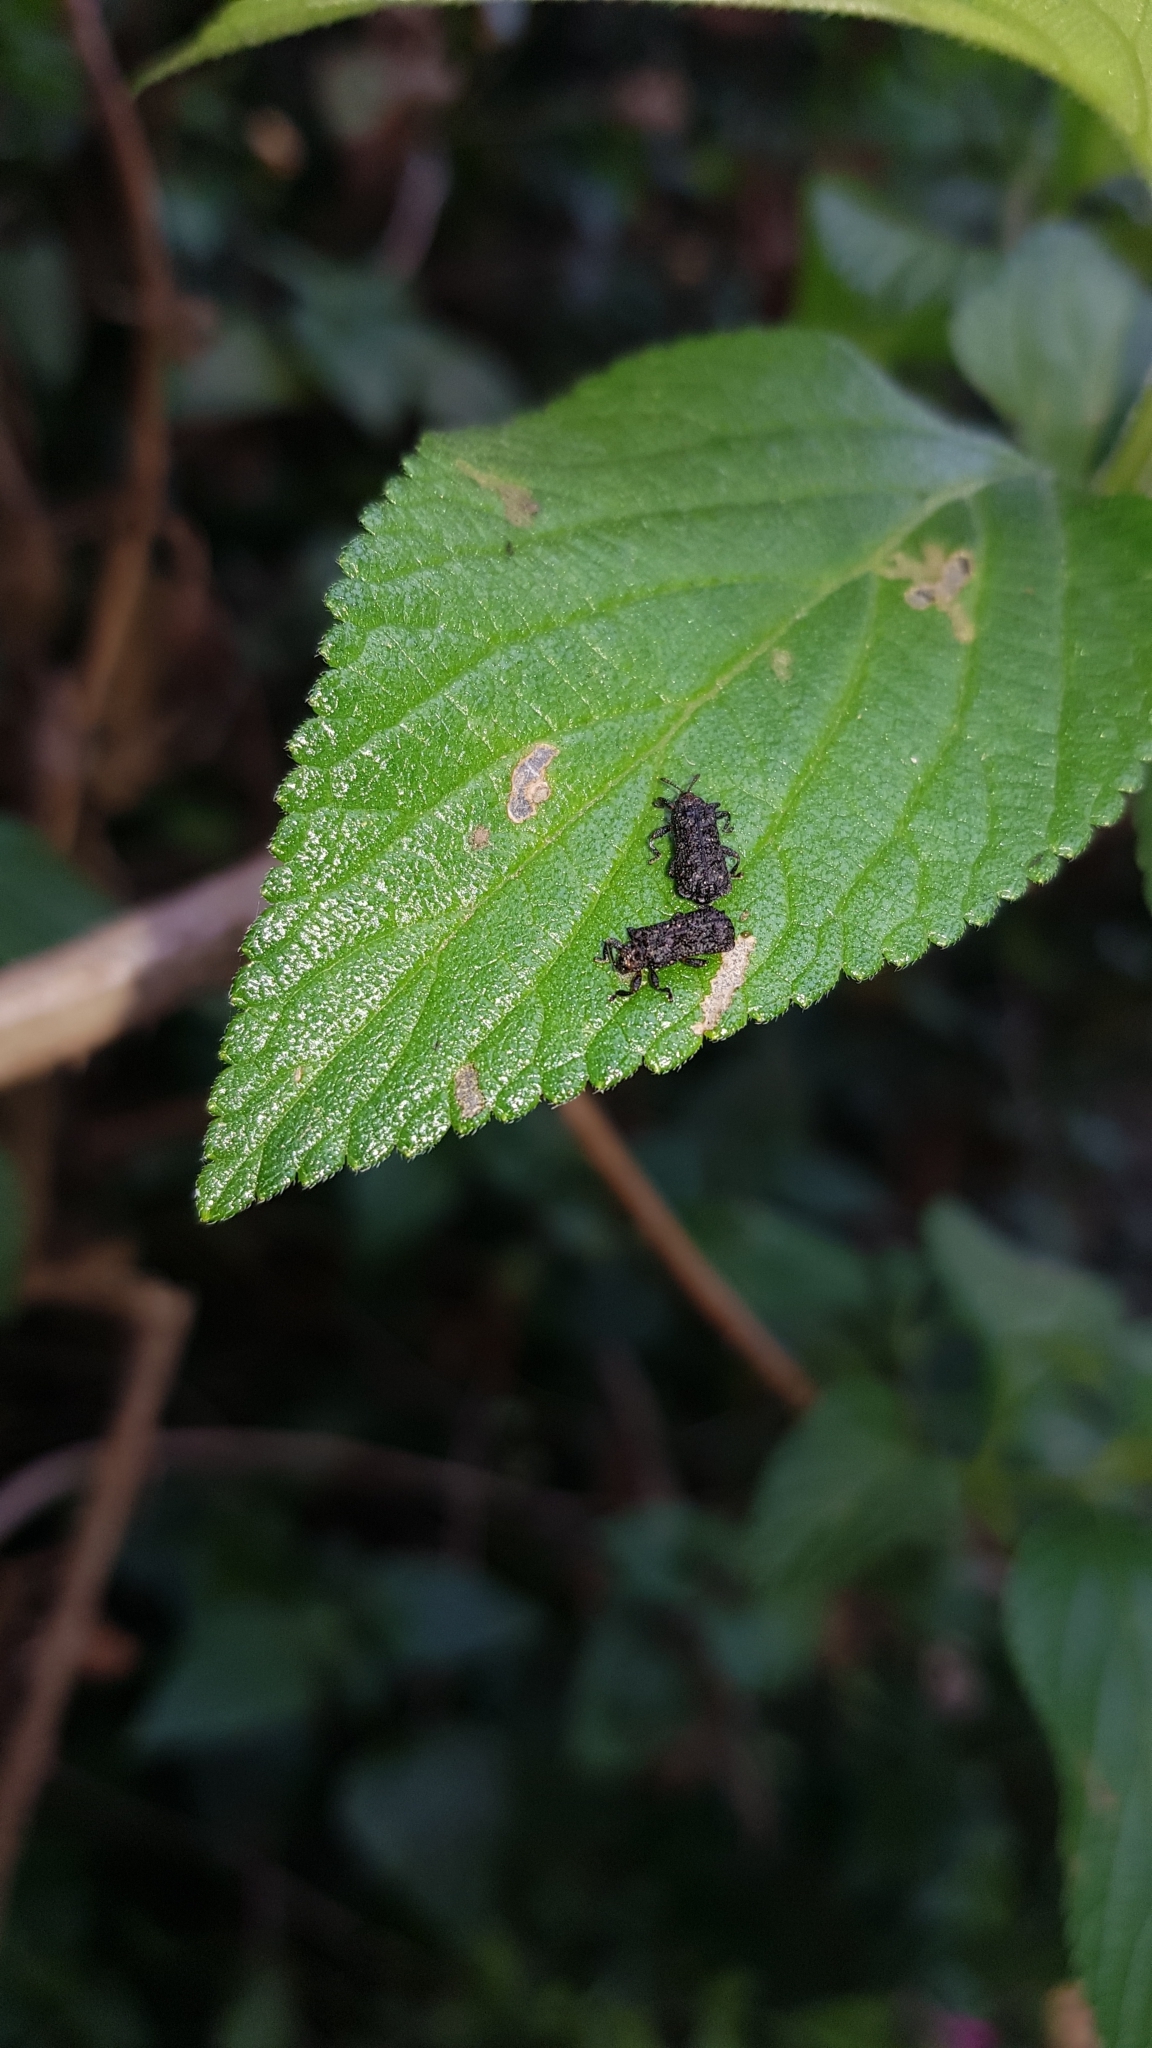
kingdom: Animalia
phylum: Arthropoda
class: Insecta
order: Coleoptera
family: Chrysomelidae
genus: Octotoma
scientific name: Octotoma scabripennis
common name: Beetle
